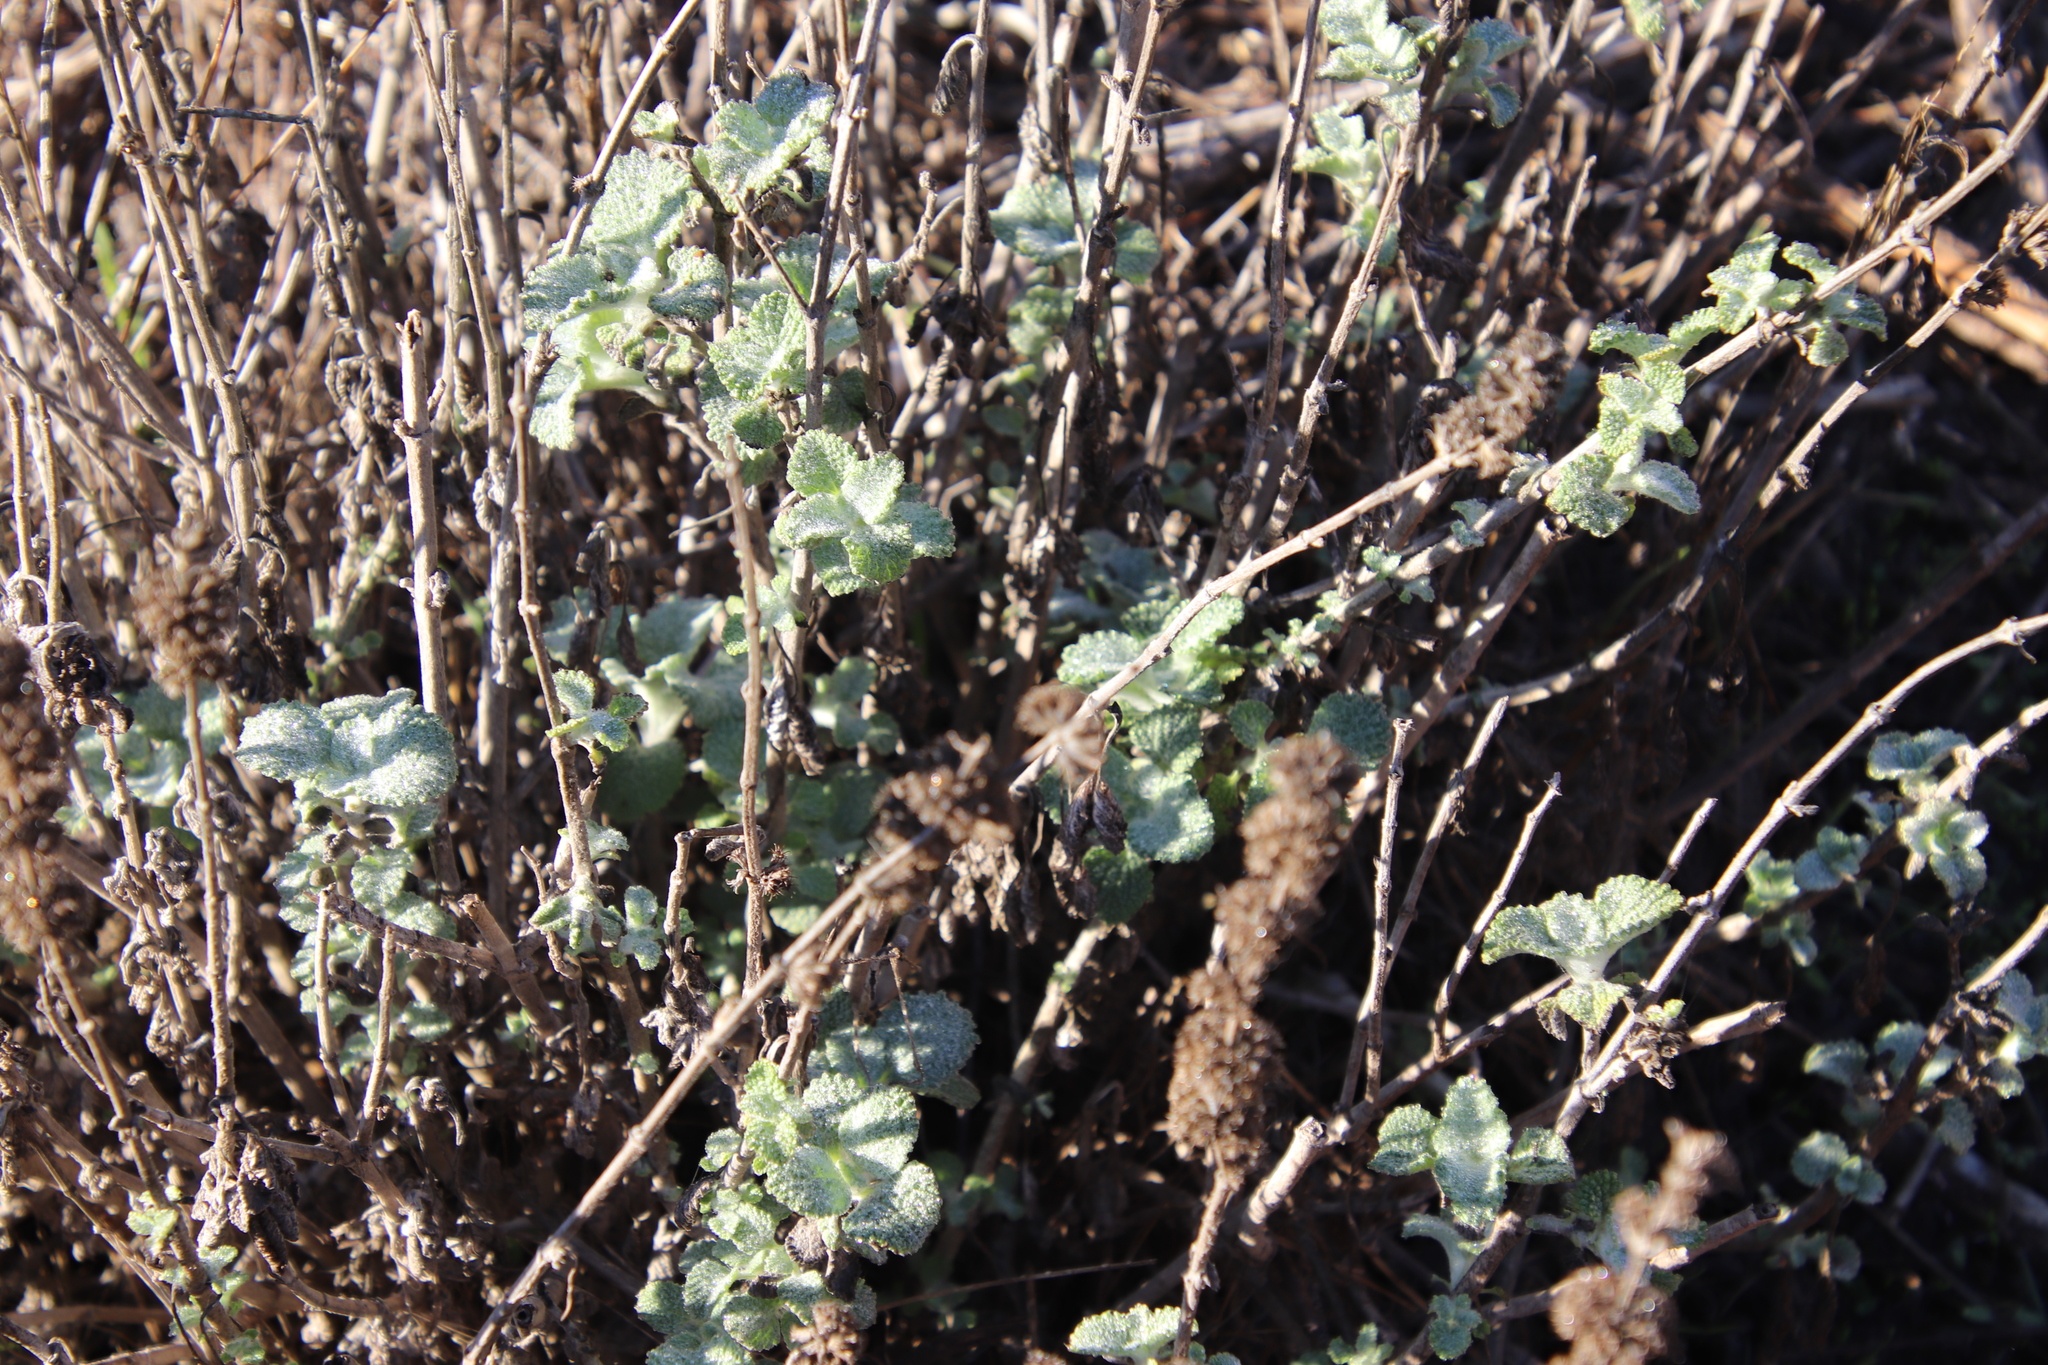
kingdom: Plantae
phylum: Tracheophyta
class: Magnoliopsida
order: Lamiales
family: Lamiaceae
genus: Marrubium
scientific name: Marrubium vulgare
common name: Horehound
